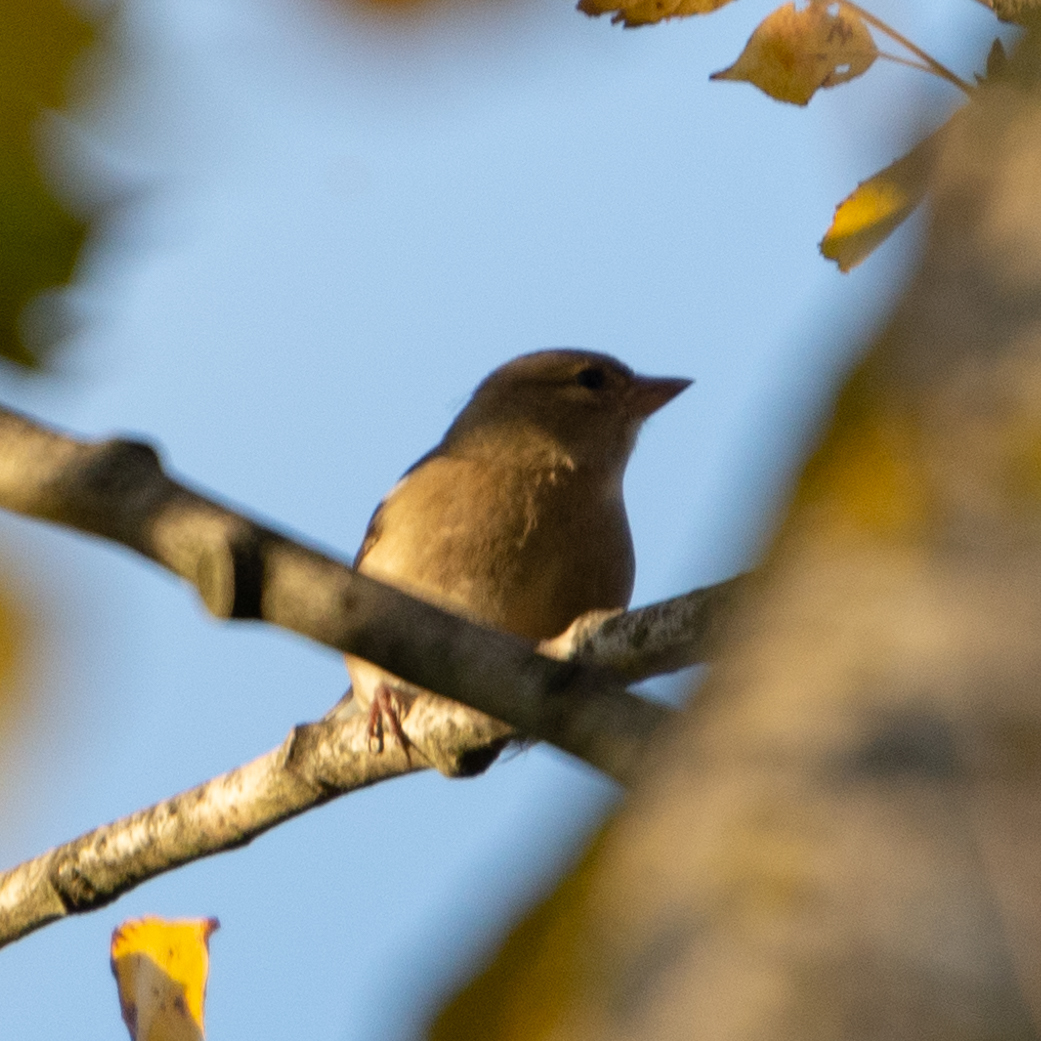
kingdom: Animalia
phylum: Chordata
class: Aves
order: Passeriformes
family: Fringillidae
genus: Fringilla
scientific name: Fringilla coelebs
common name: Common chaffinch
